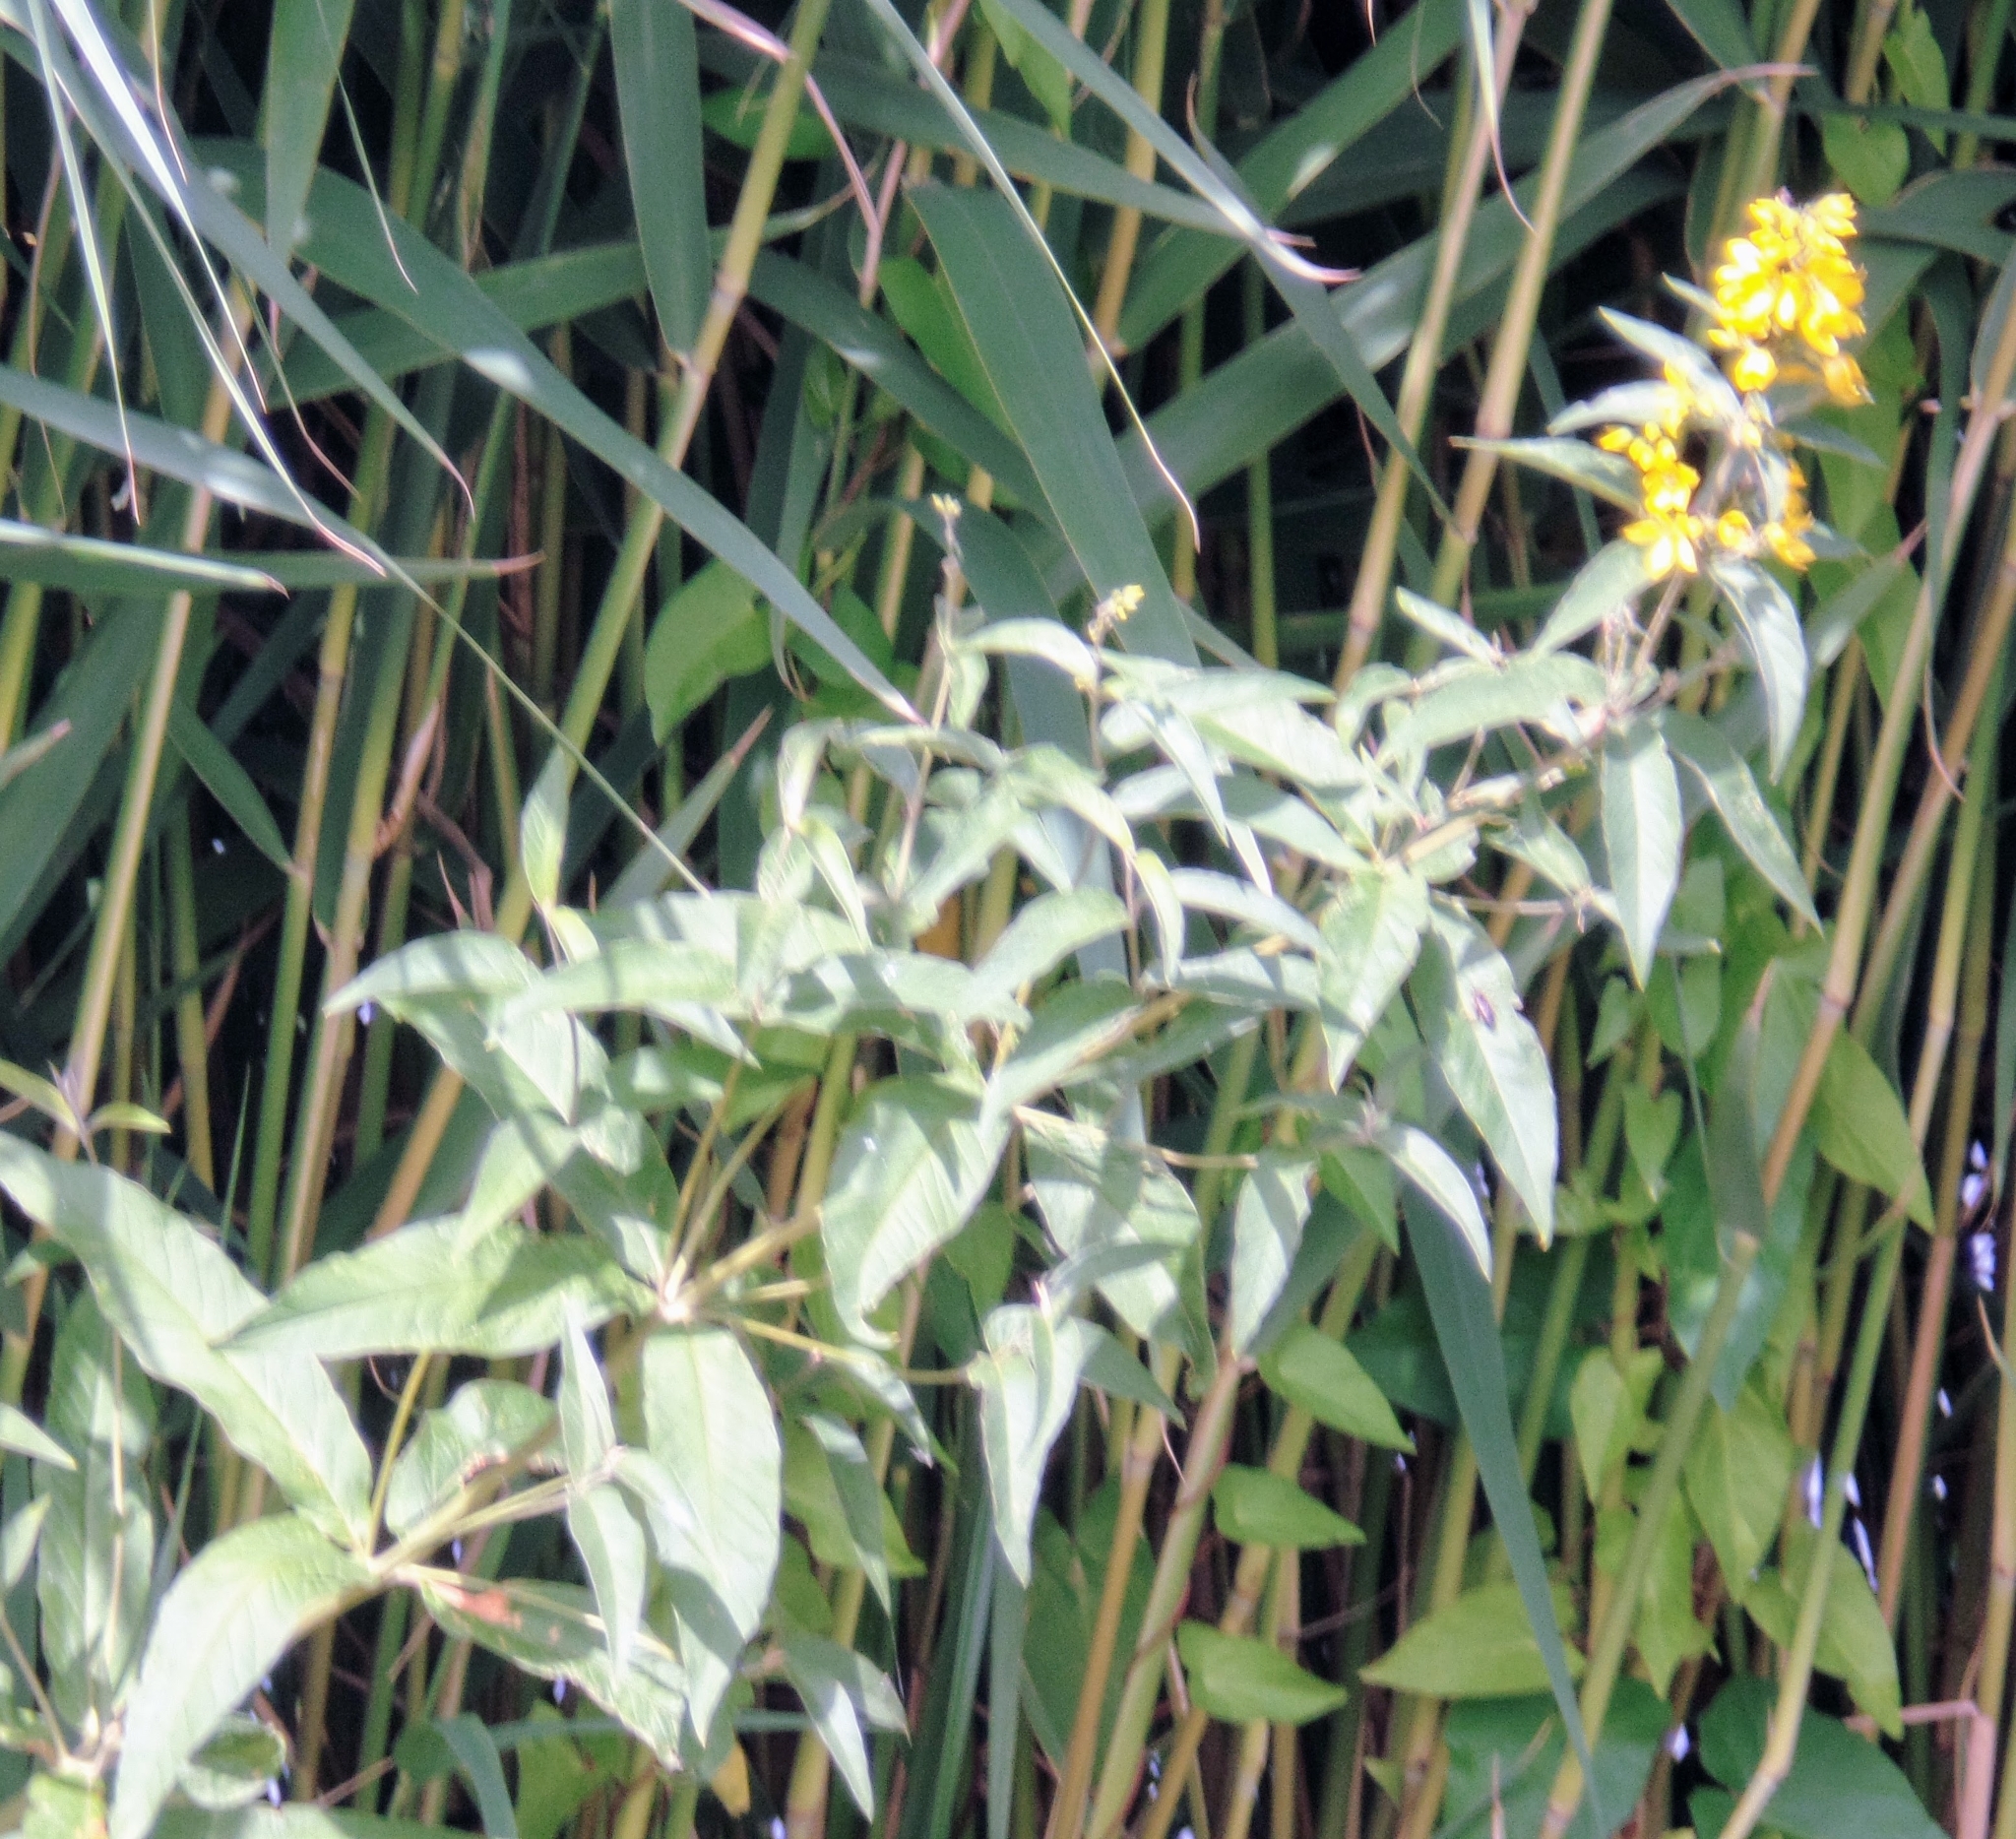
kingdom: Plantae
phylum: Tracheophyta
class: Magnoliopsida
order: Ericales
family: Primulaceae
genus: Lysimachia
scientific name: Lysimachia vulgaris
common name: Yellow loosestrife
